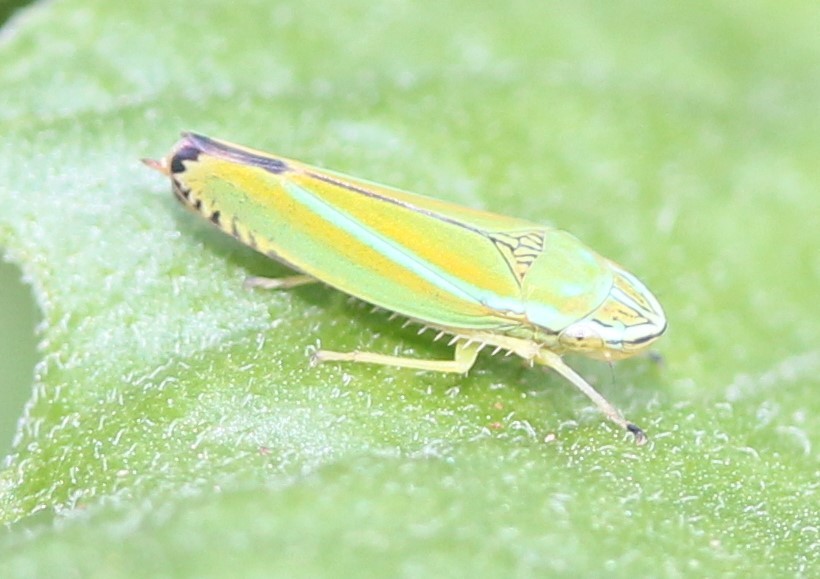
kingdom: Animalia
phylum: Arthropoda
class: Insecta
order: Hemiptera
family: Cicadellidae
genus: Graphocephala
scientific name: Graphocephala versuta
